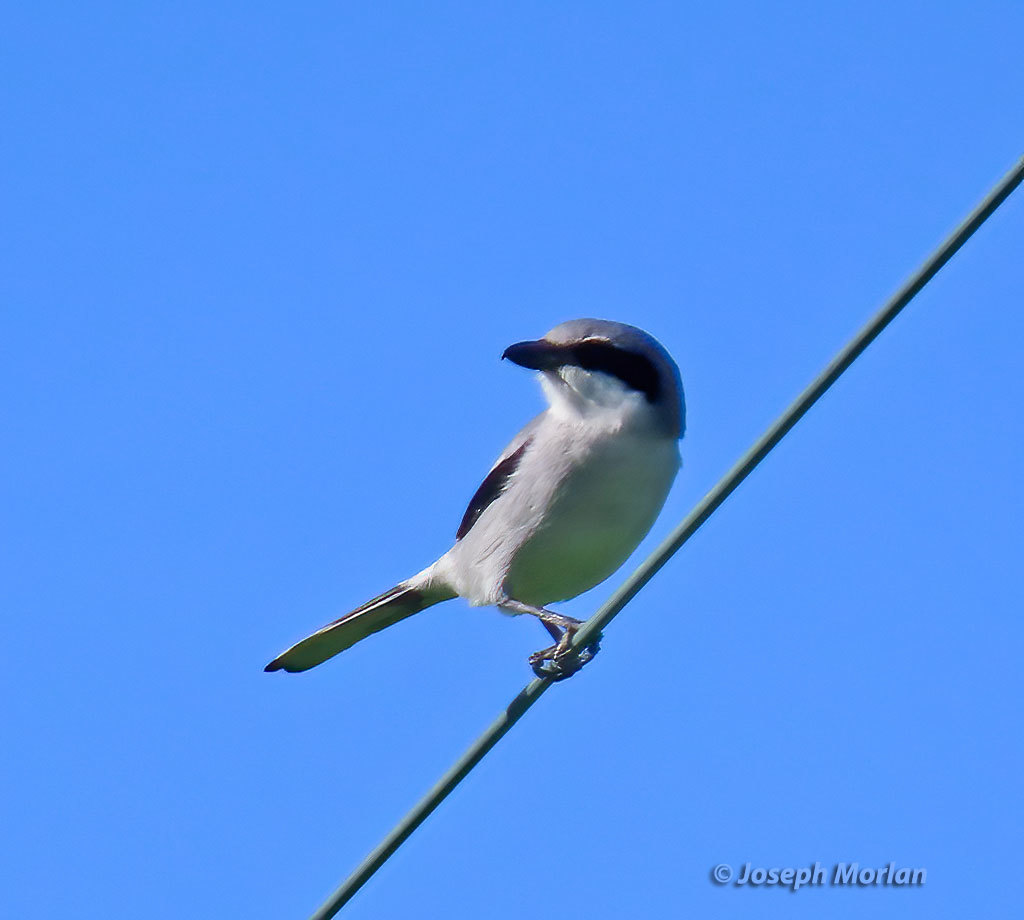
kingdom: Animalia
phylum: Chordata
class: Aves
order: Passeriformes
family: Laniidae
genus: Lanius
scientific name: Lanius ludovicianus
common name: Loggerhead shrike
